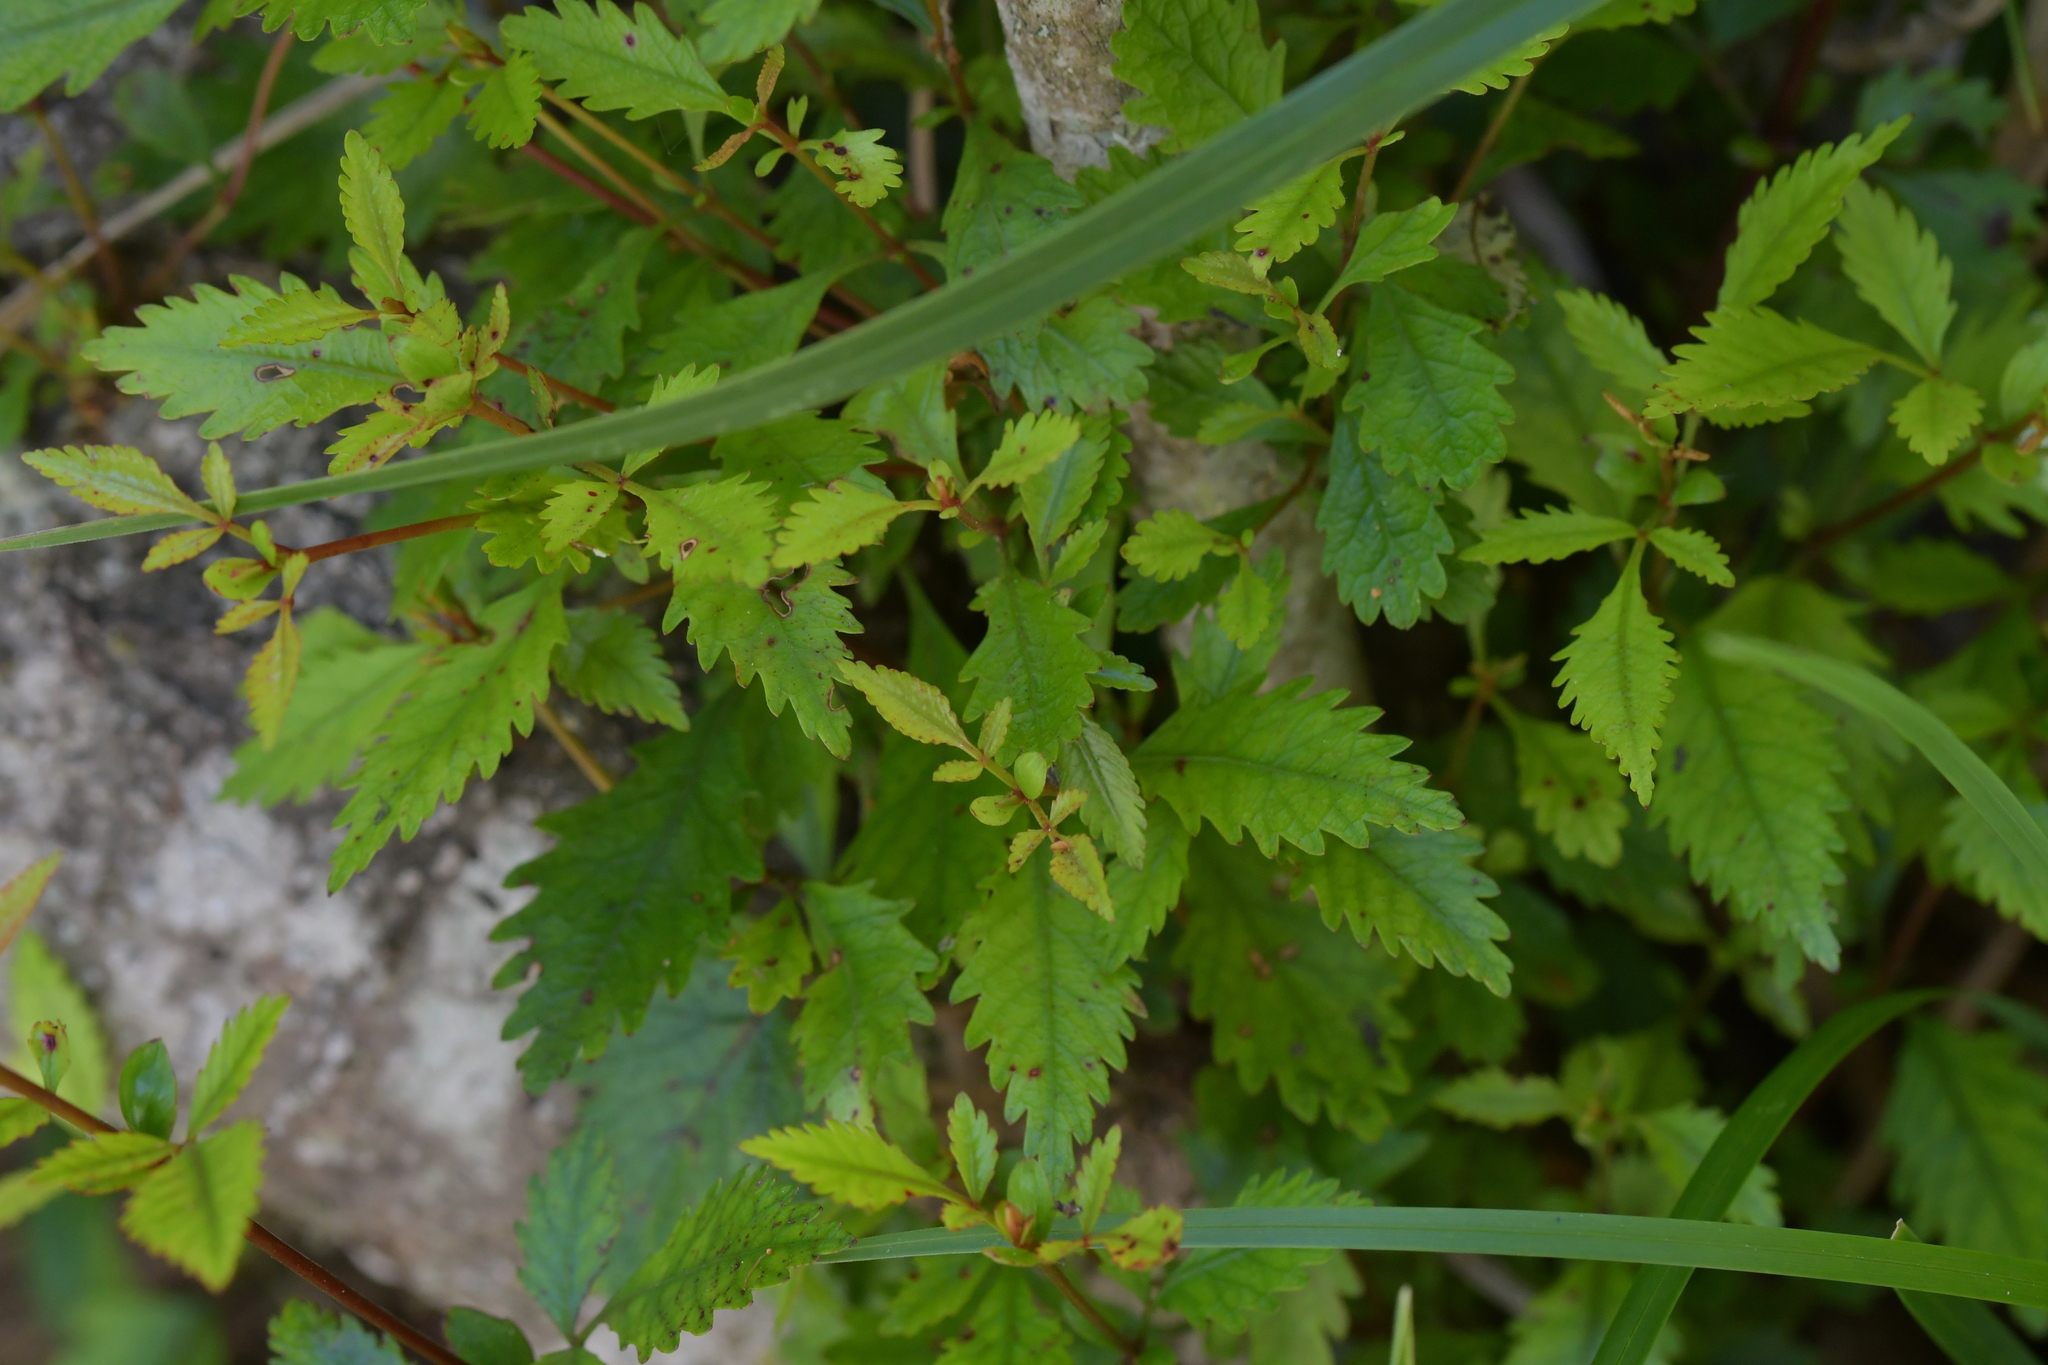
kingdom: Plantae
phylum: Tracheophyta
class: Magnoliopsida
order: Oxalidales
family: Cunoniaceae
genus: Pterophylla
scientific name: Pterophylla racemosa
